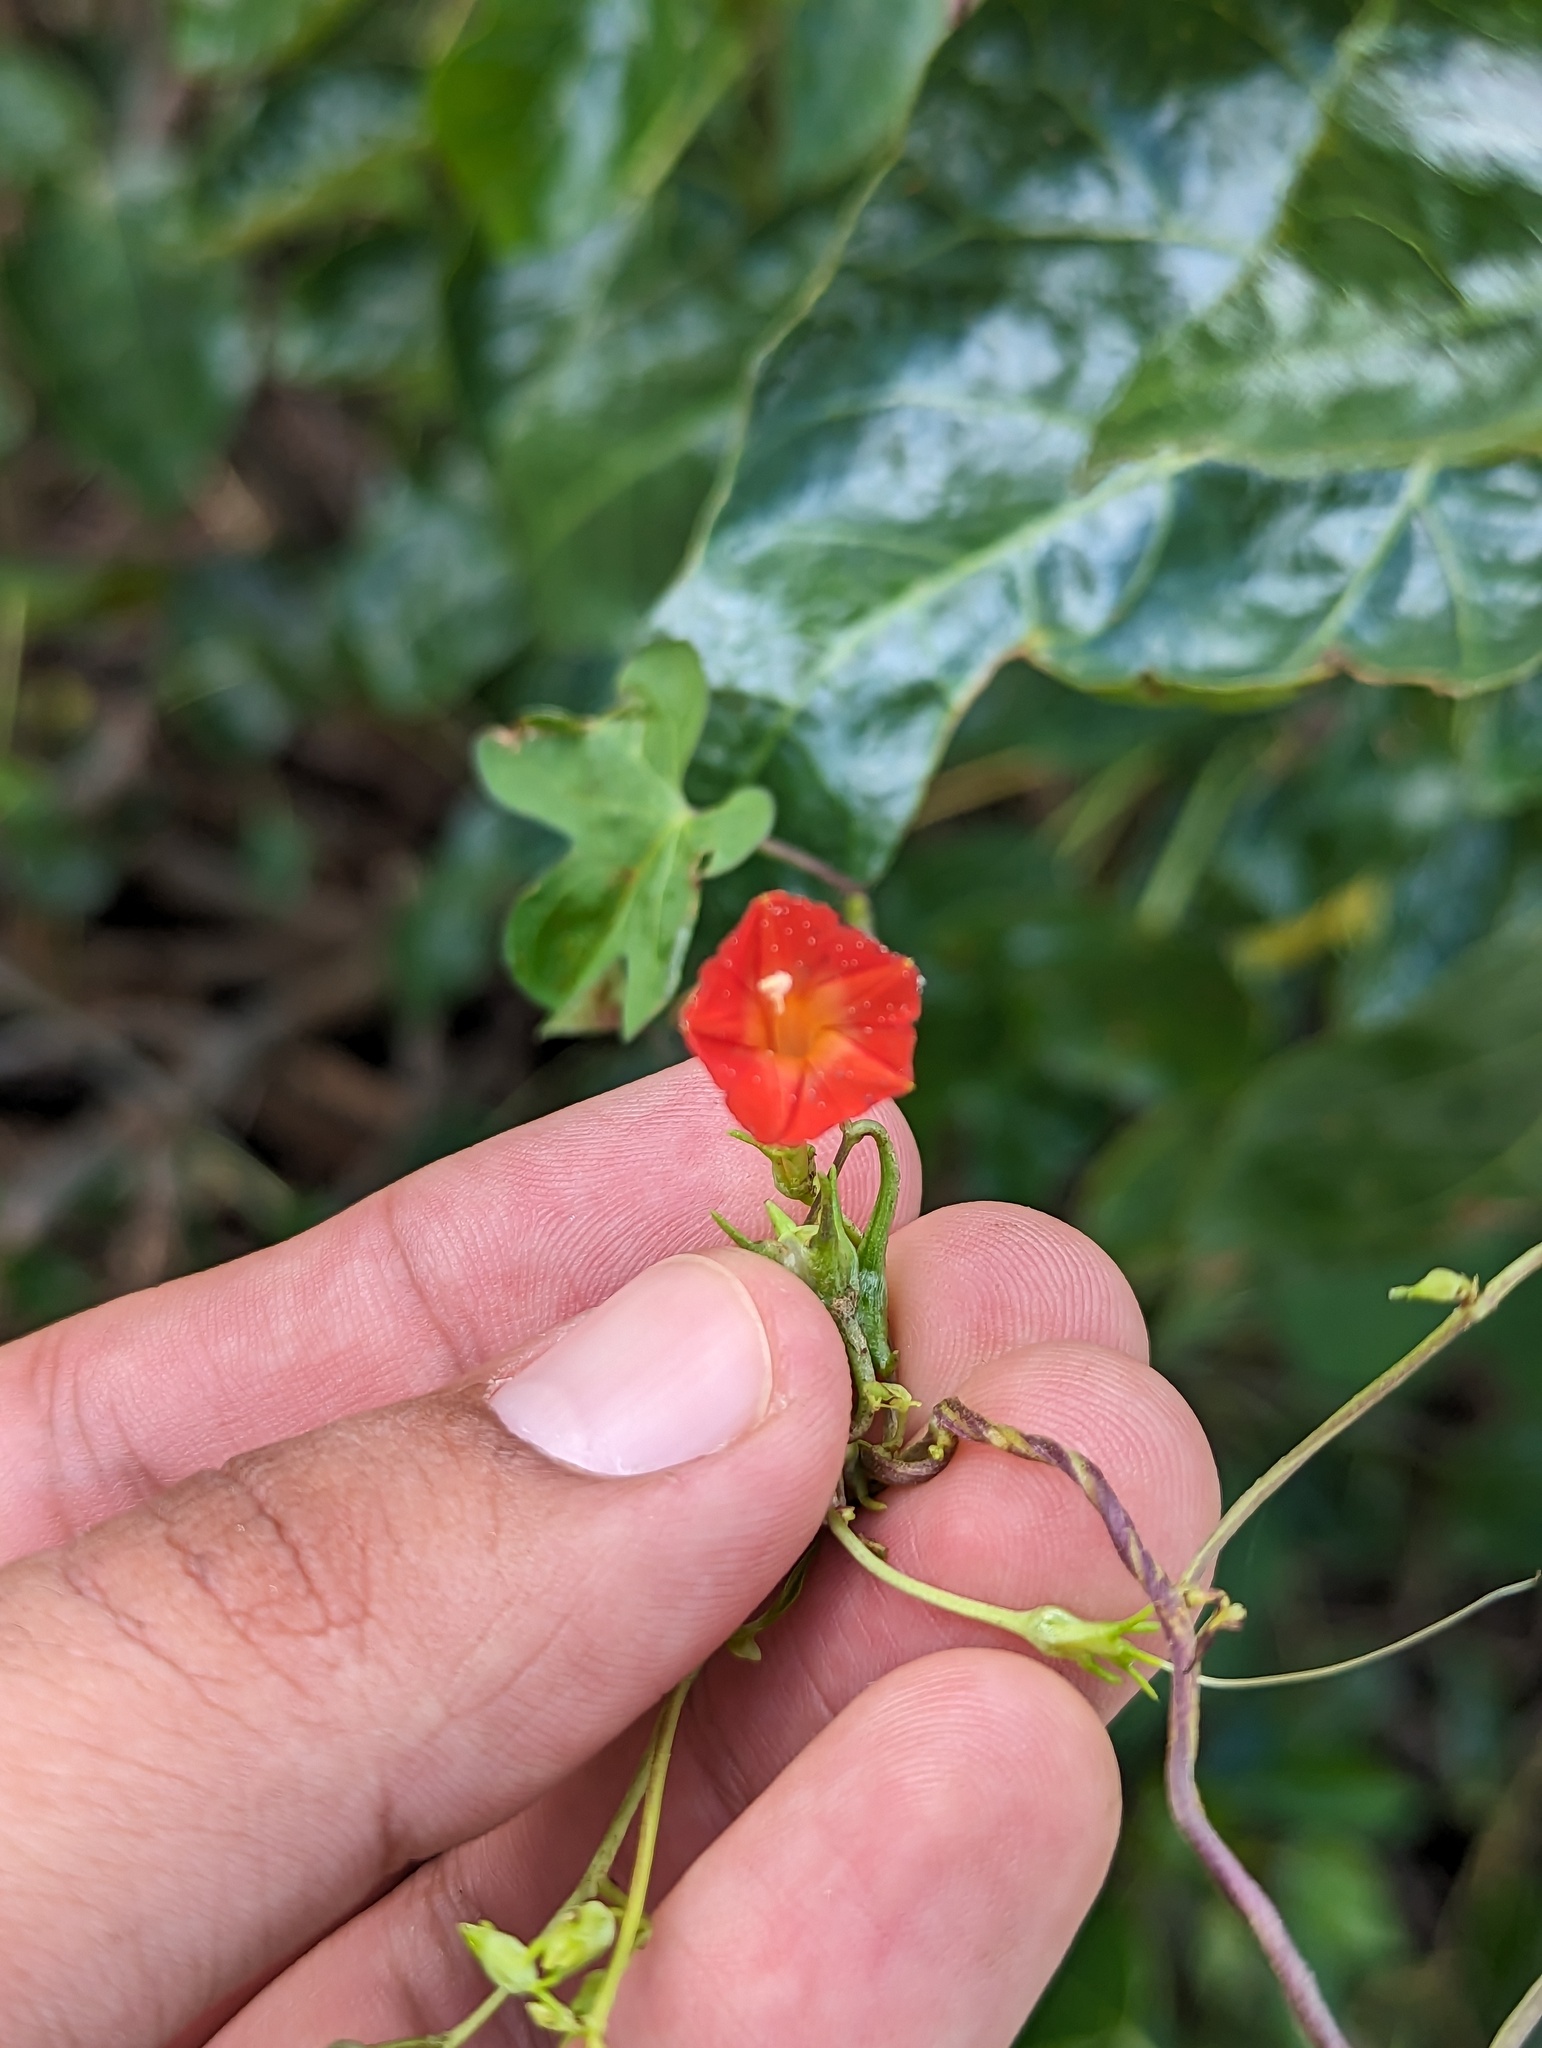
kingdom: Plantae
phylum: Tracheophyta
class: Magnoliopsida
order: Solanales
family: Convolvulaceae
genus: Ipomoea
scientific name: Ipomoea cristulata
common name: Trans-pecos morning-glory
